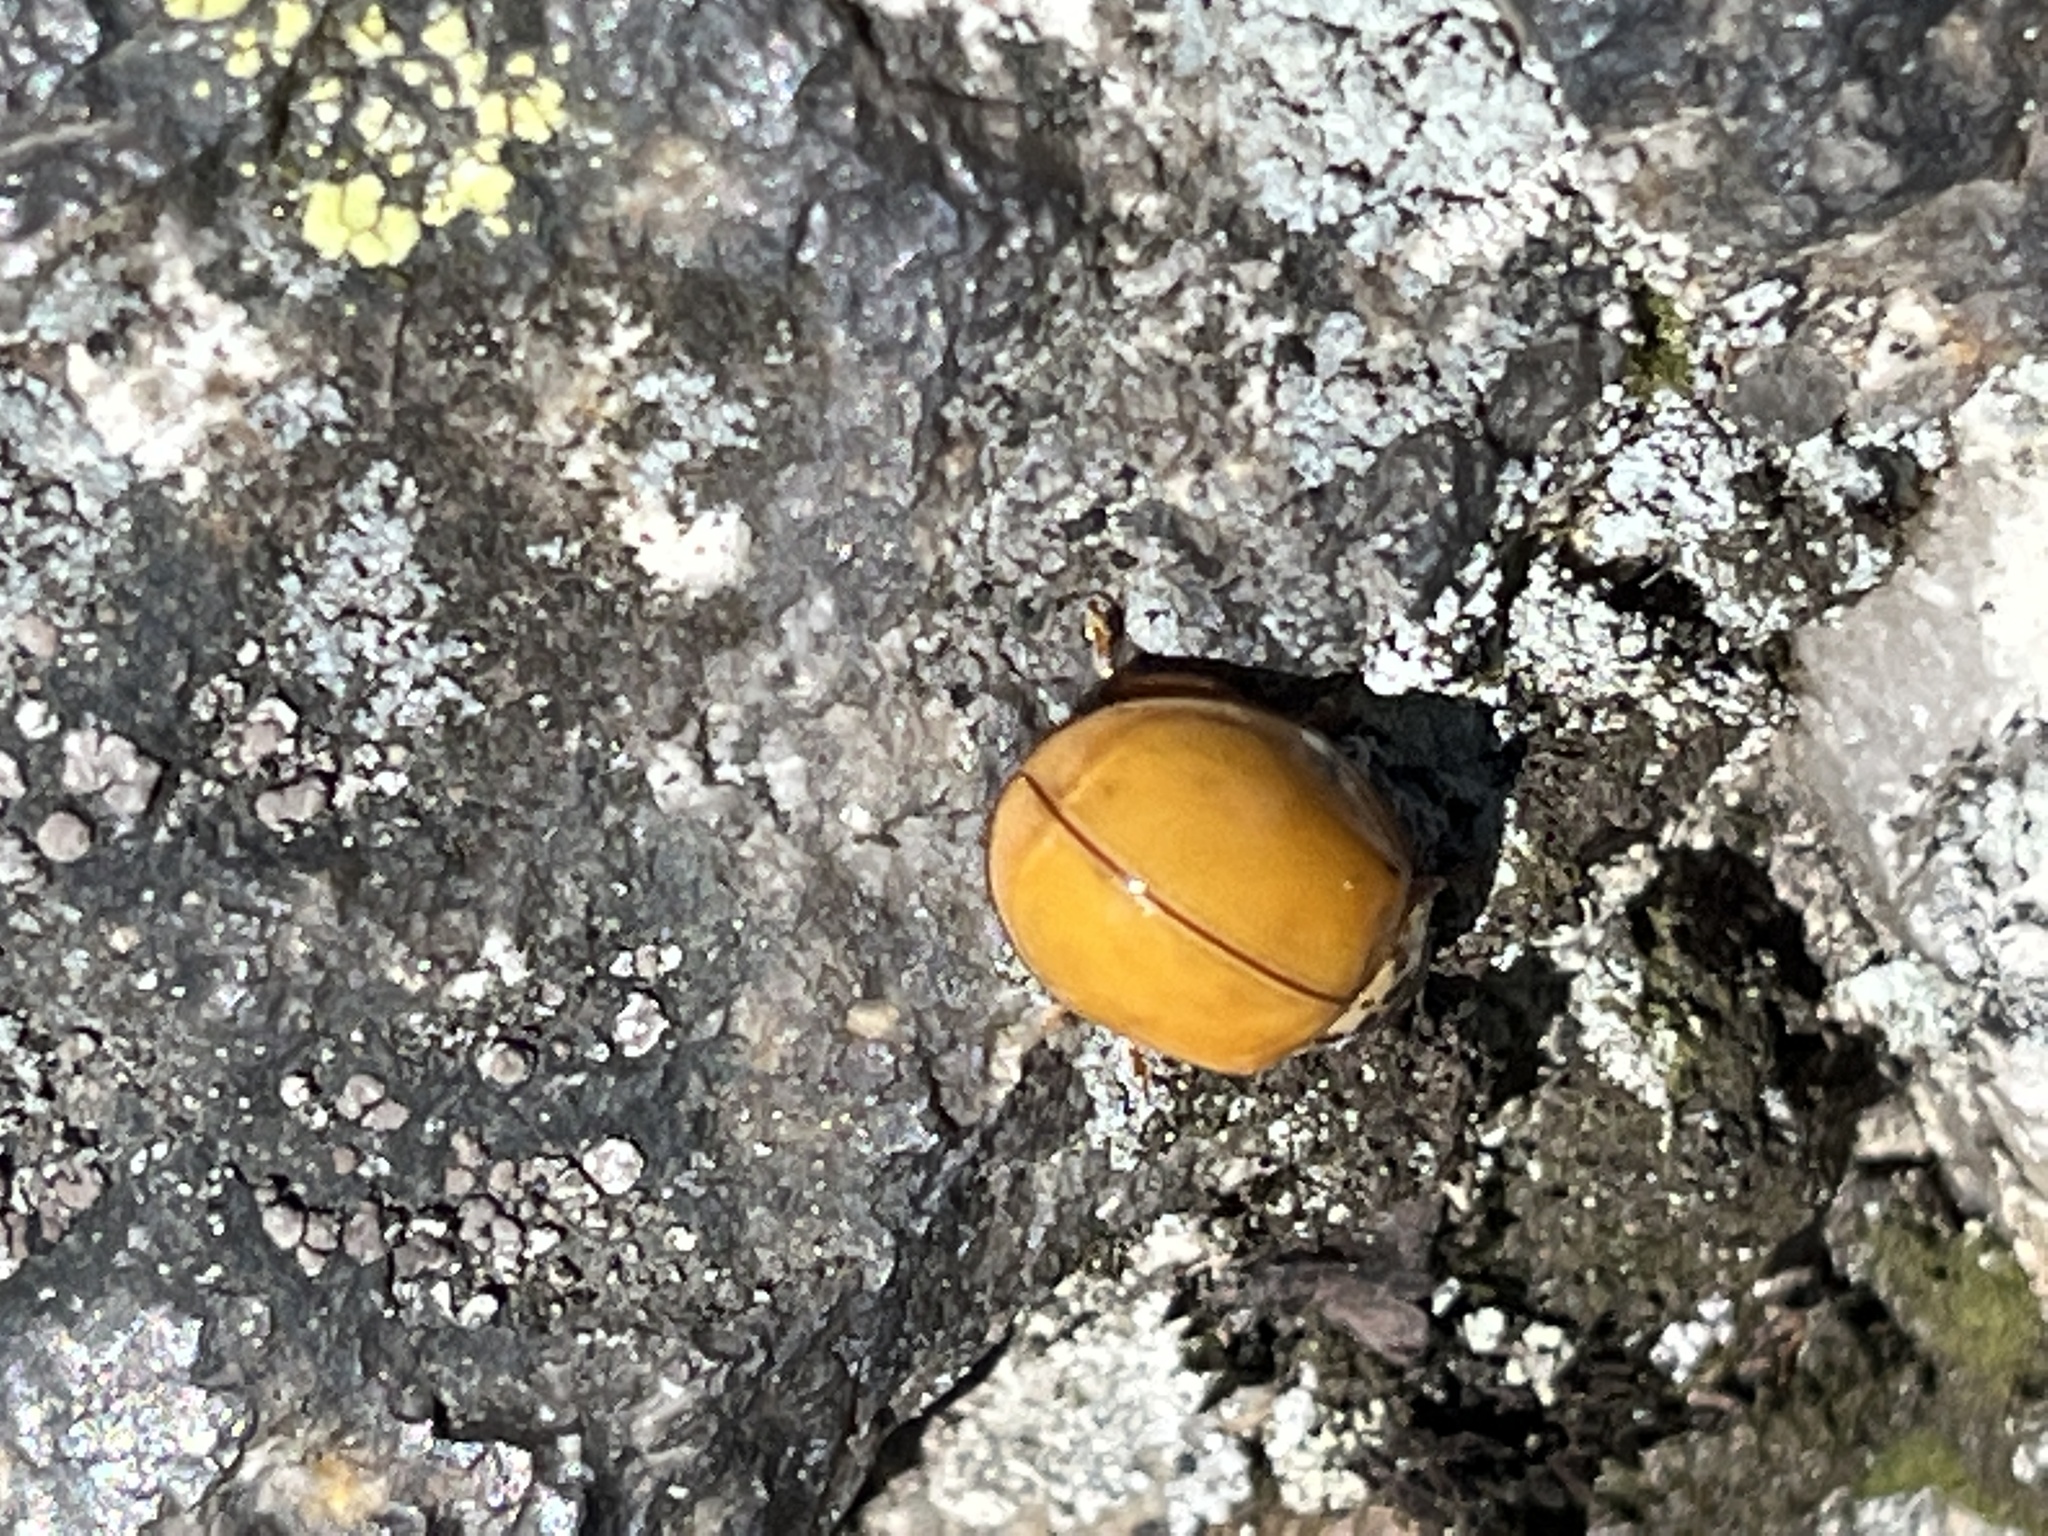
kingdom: Animalia
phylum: Arthropoda
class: Insecta
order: Coleoptera
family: Coccinellidae
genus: Harmonia
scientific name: Harmonia axyridis
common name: Harlequin ladybird
